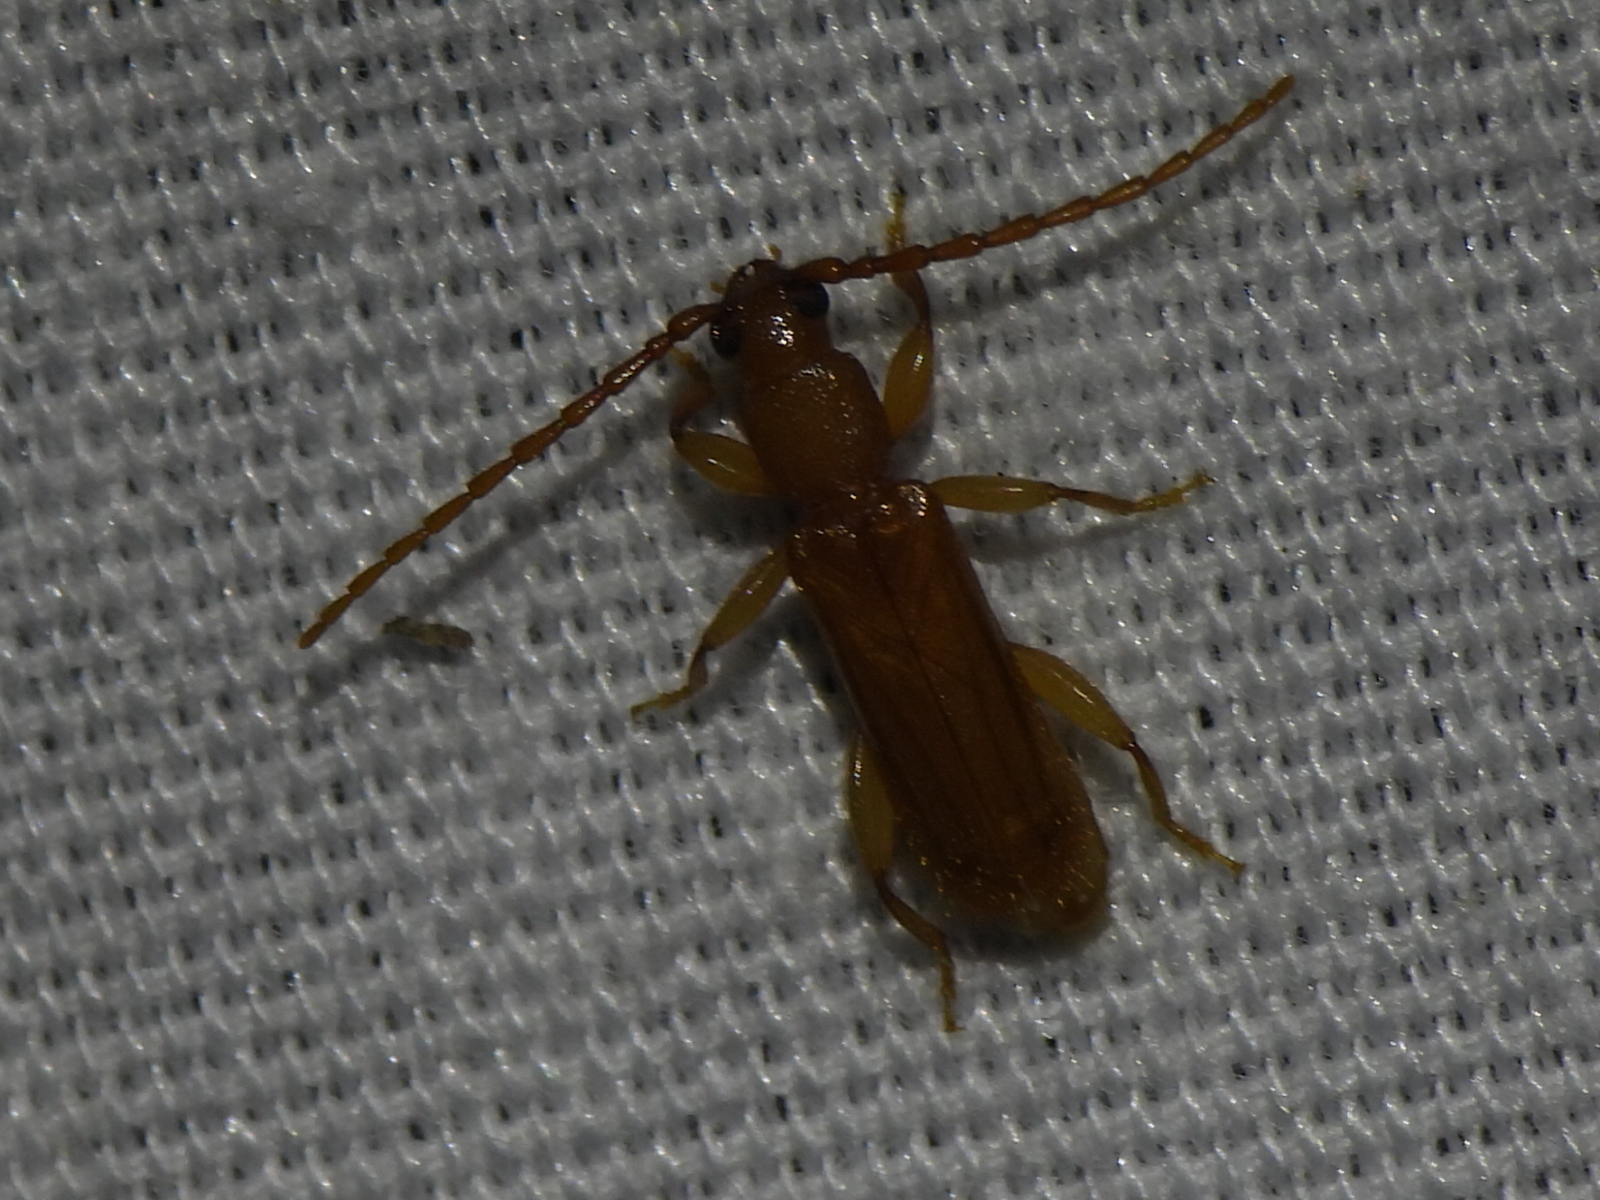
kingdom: Animalia
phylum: Arthropoda
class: Insecta
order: Coleoptera
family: Cerambycidae
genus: Smodicum
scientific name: Smodicum cucujiforme
